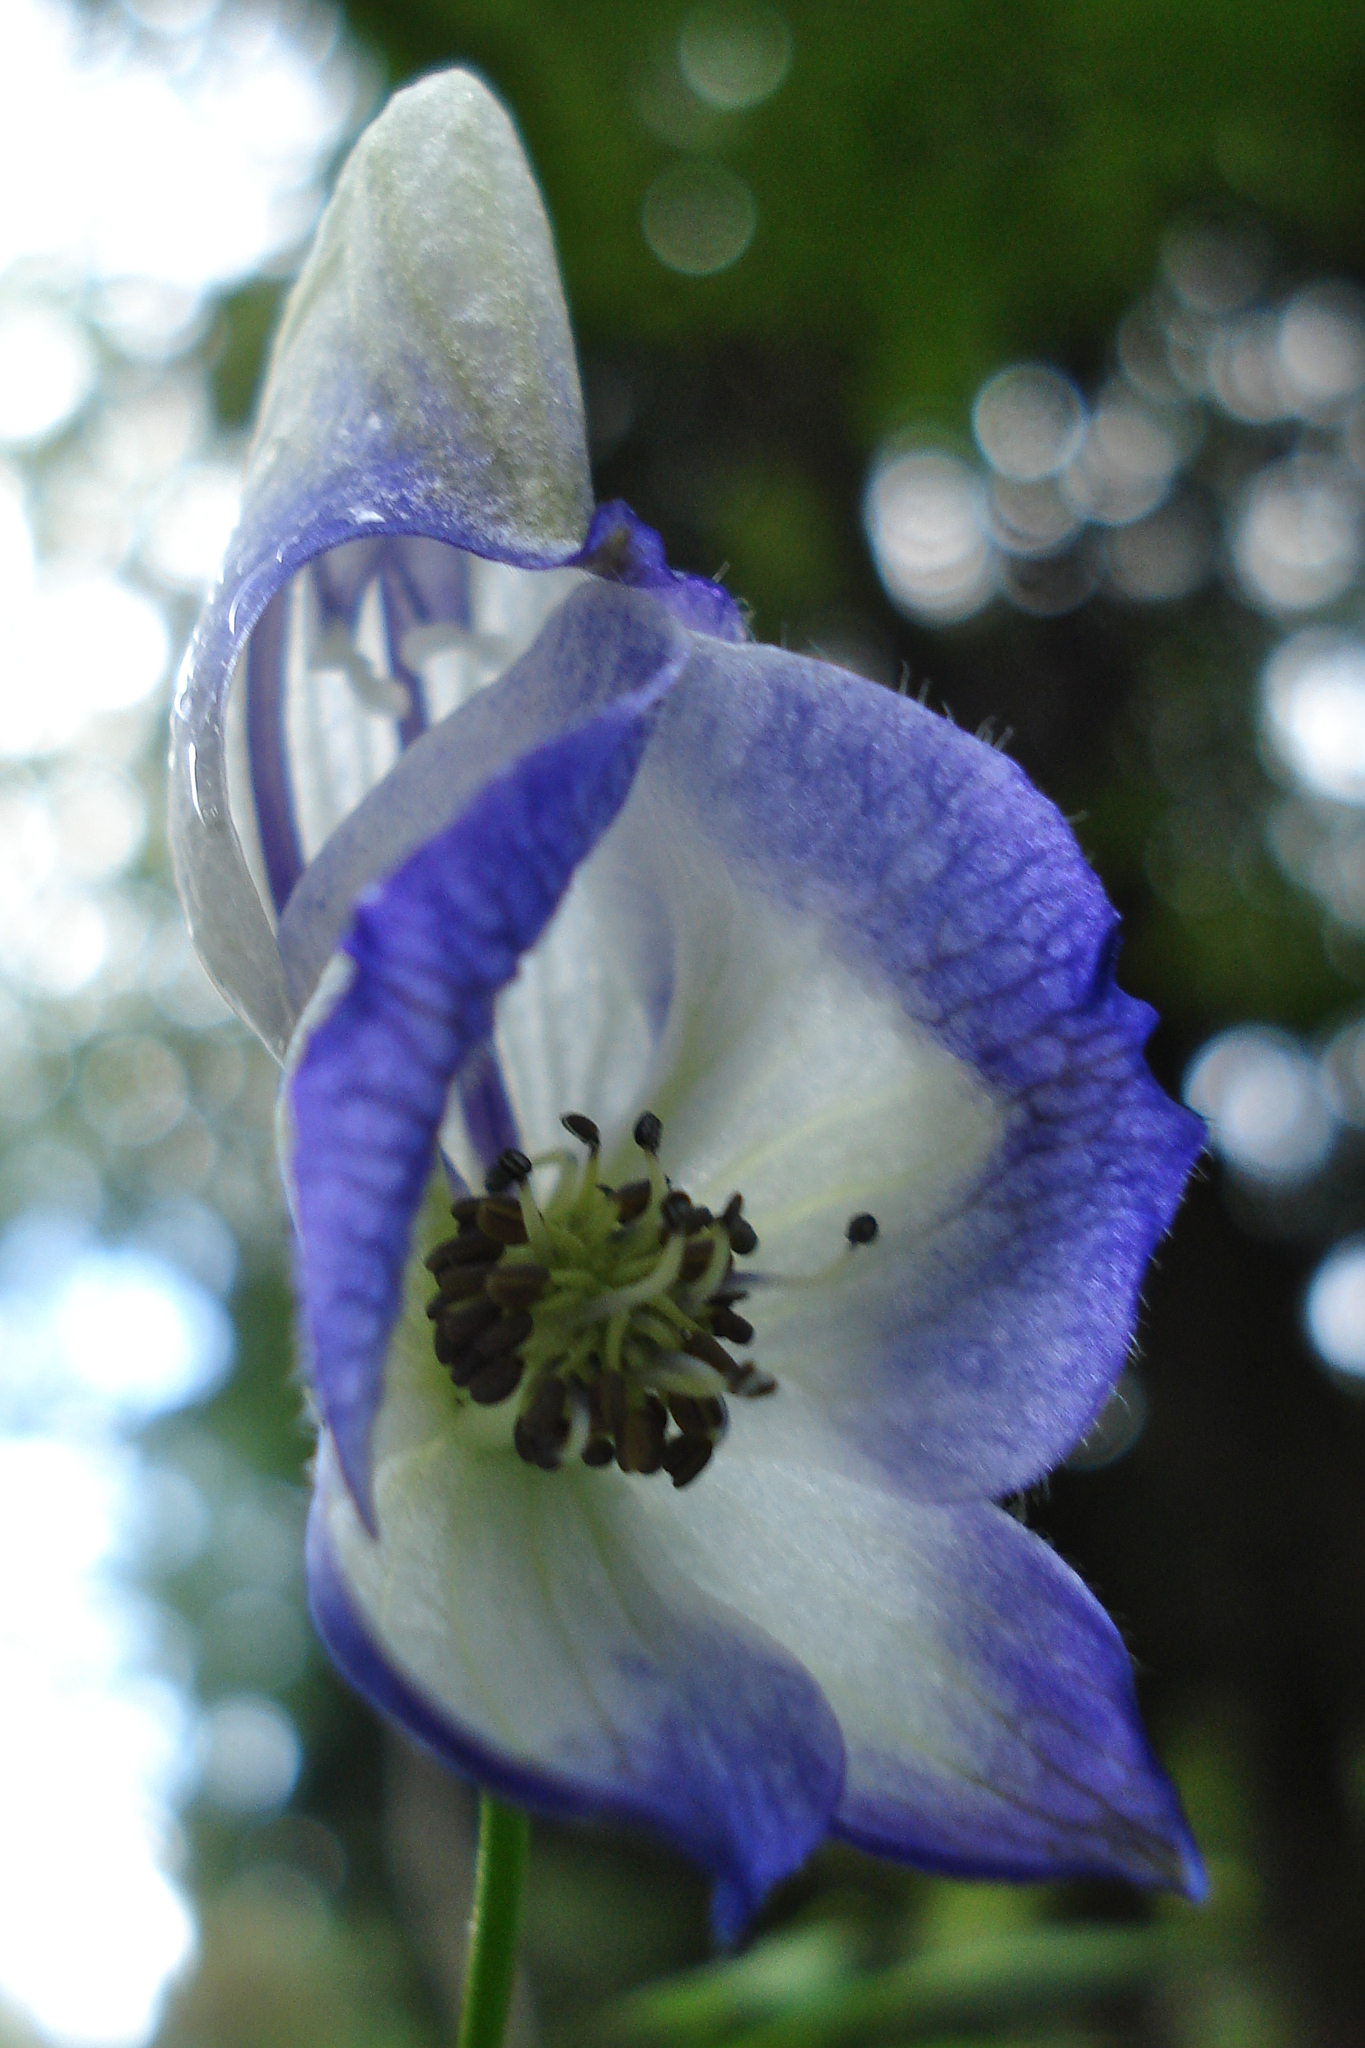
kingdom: Plantae
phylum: Tracheophyta
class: Magnoliopsida
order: Ranunculales
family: Ranunculaceae
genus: Aconitum
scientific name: Aconitum napellus
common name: Garden monkshood
